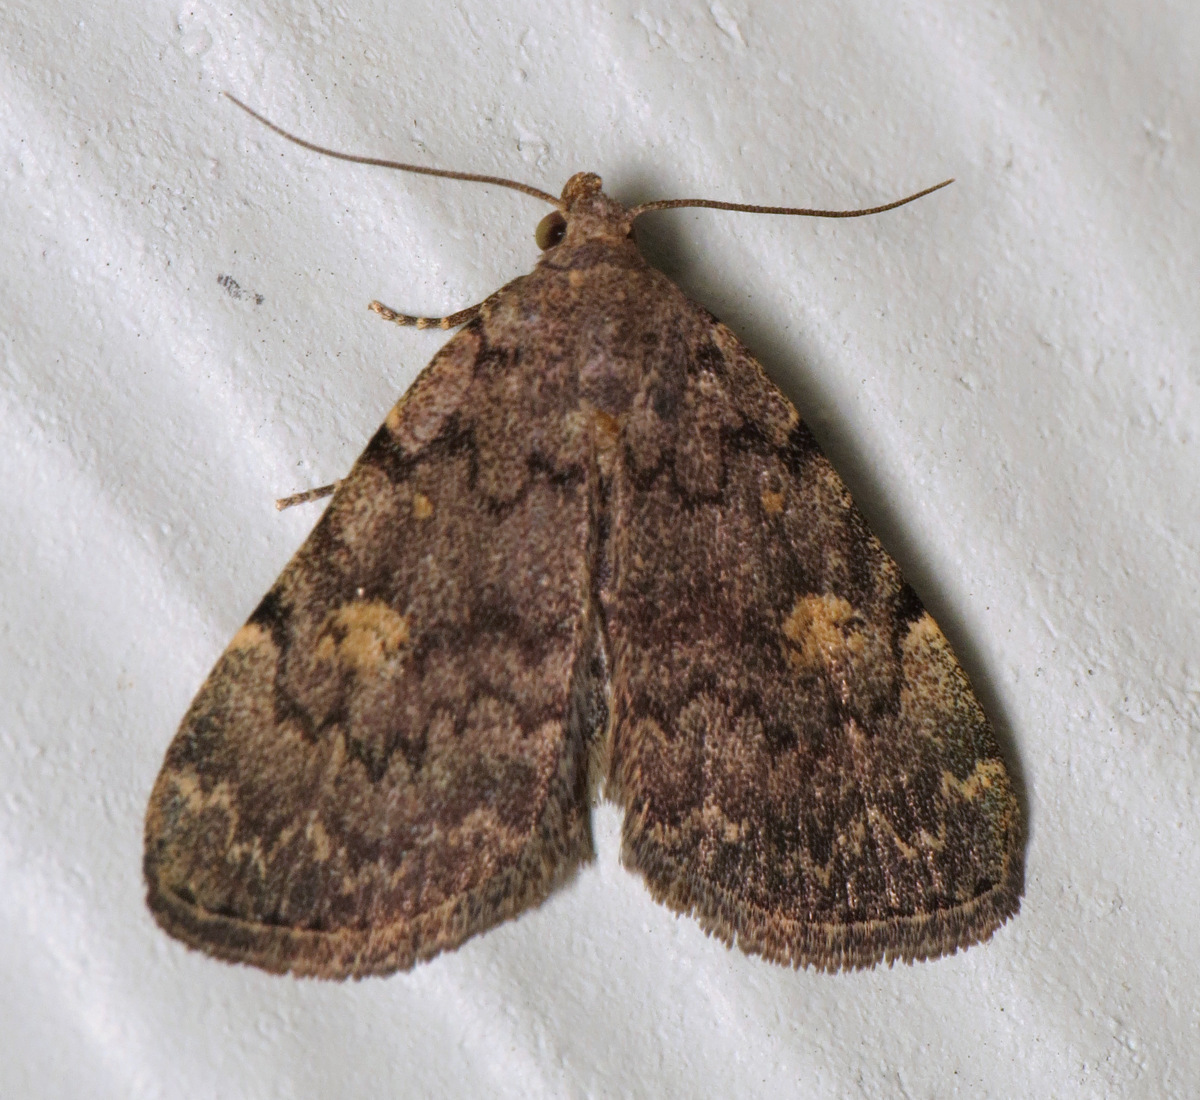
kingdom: Animalia
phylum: Arthropoda
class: Insecta
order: Lepidoptera
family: Erebidae
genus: Idia
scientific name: Idia aemula
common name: Common idia moth
